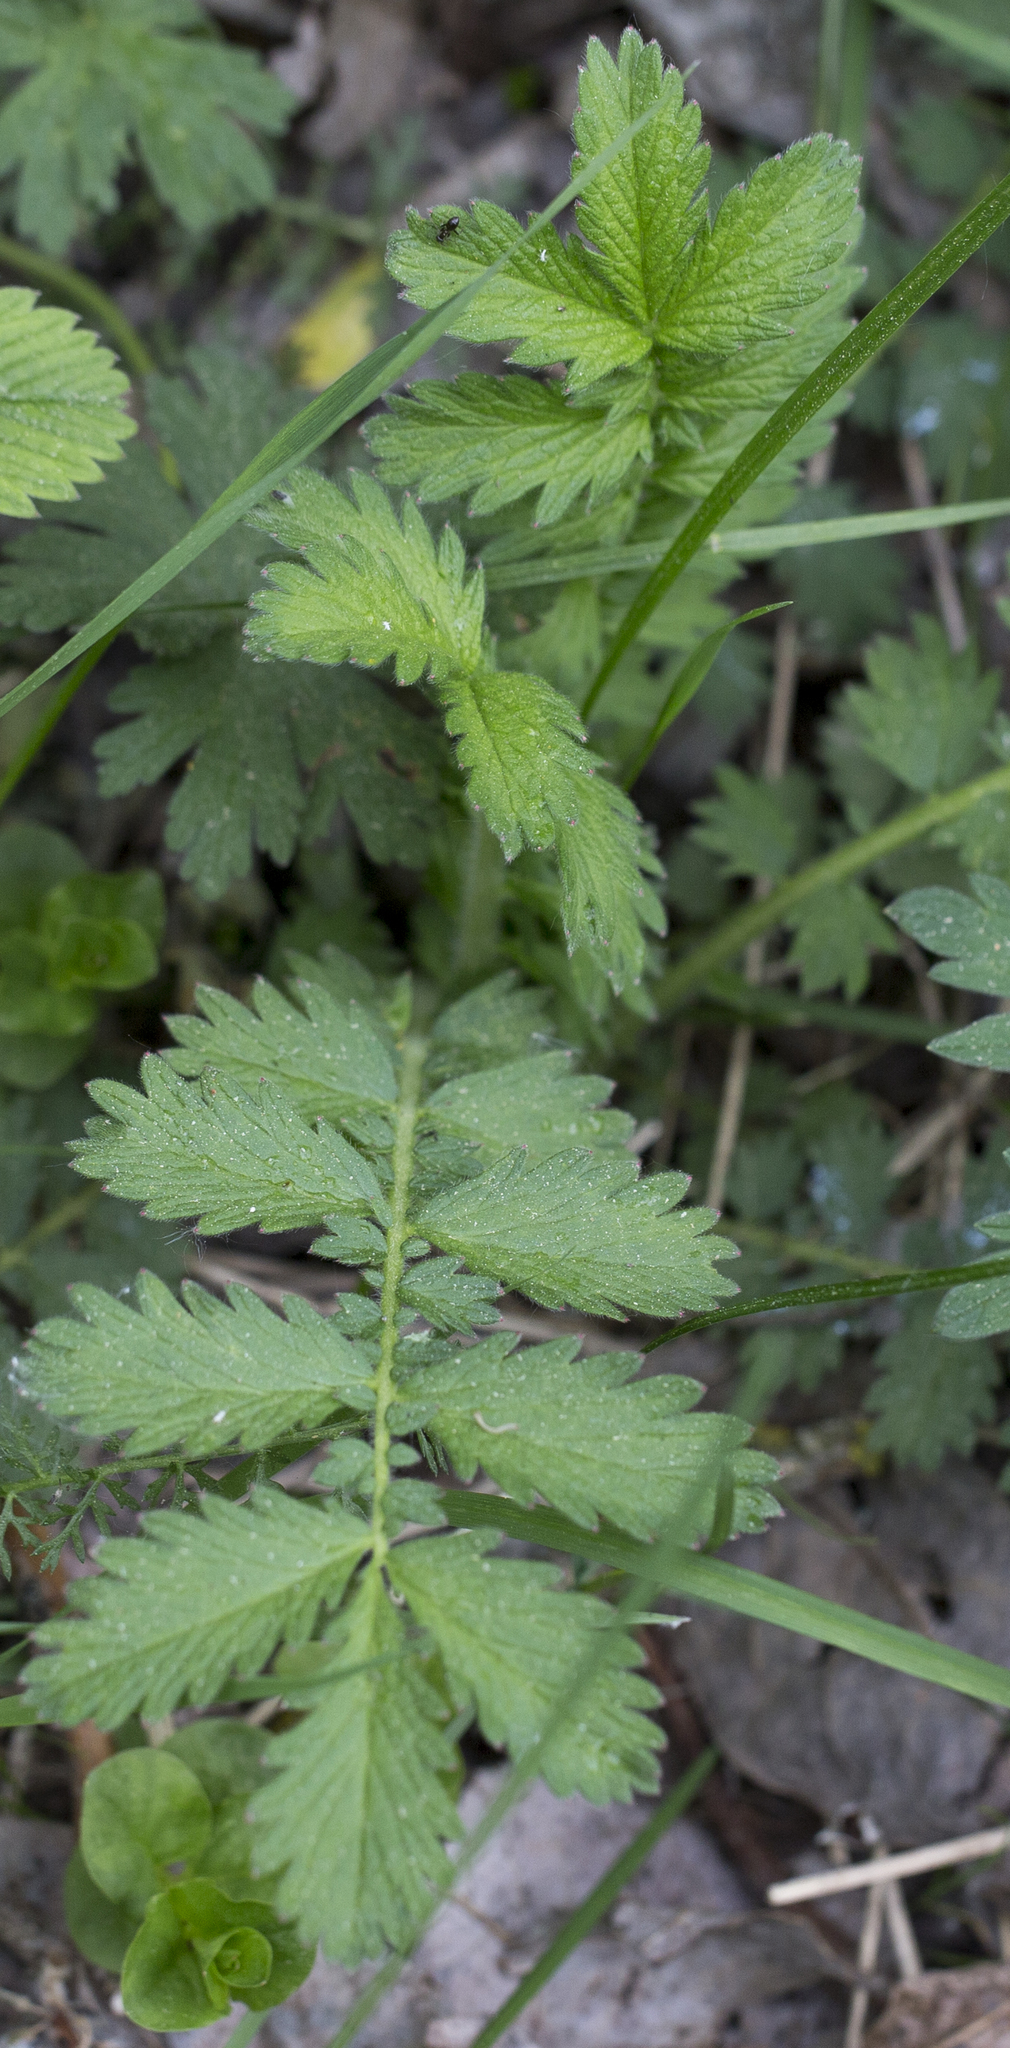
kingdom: Plantae
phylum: Tracheophyta
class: Magnoliopsida
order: Rosales
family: Rosaceae
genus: Agrimonia
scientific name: Agrimonia eupatoria
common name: Agrimony
